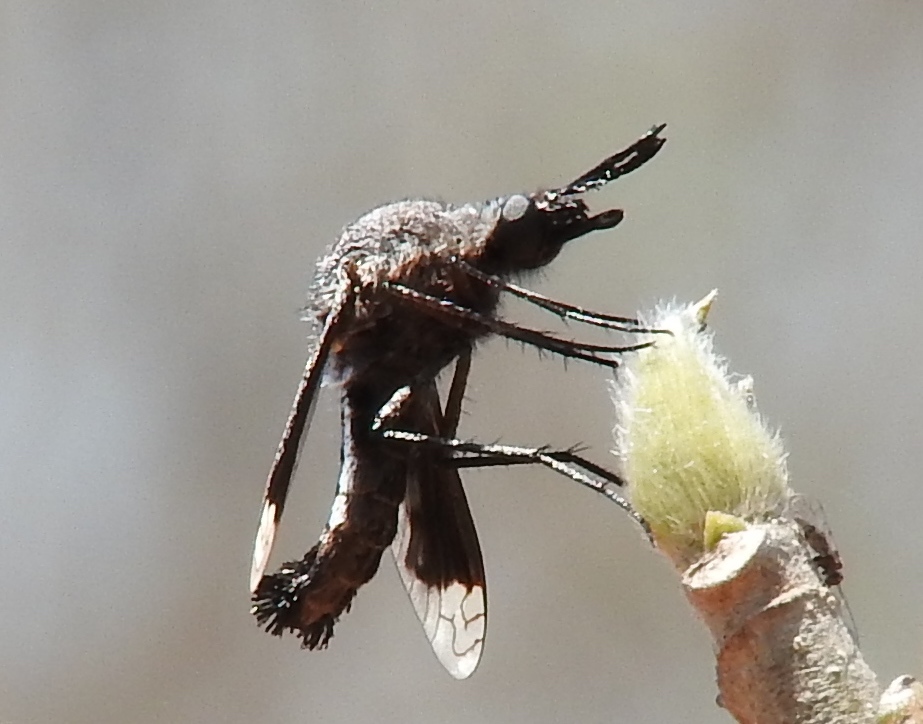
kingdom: Animalia
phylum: Arthropoda
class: Insecta
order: Diptera
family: Bombyliidae
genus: Lepidophora
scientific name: Lepidophora vetusta
